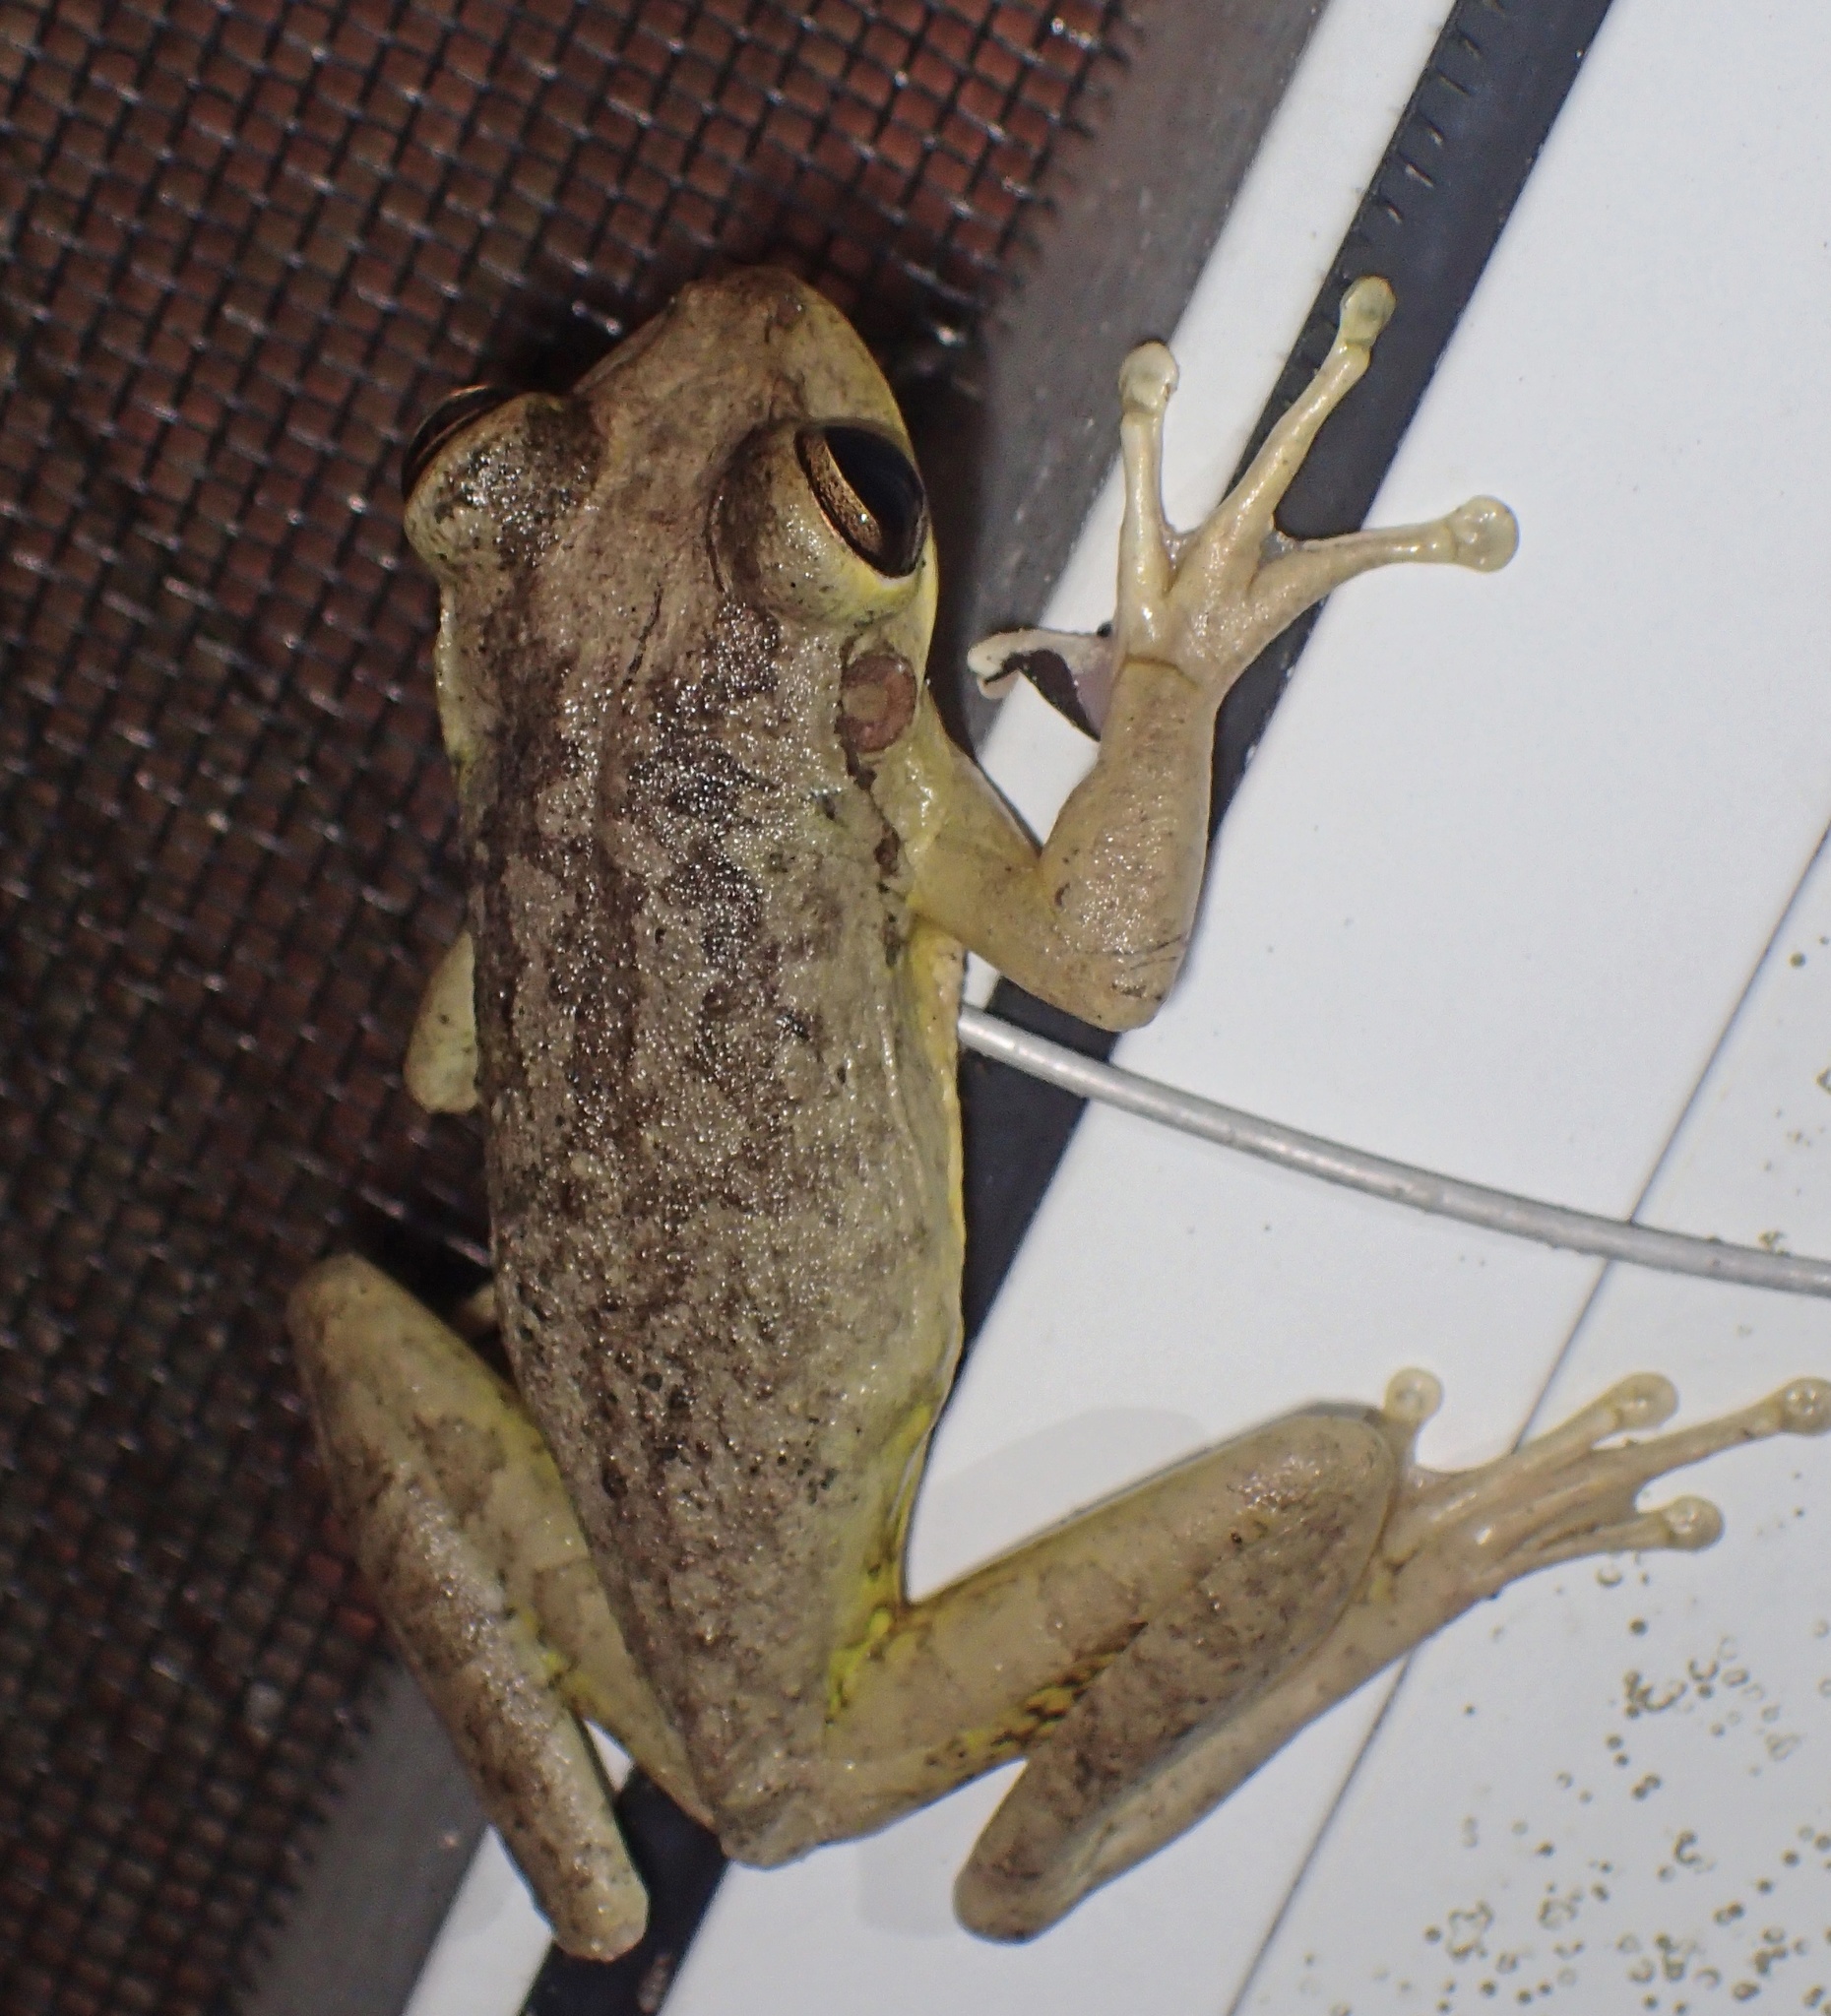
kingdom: Animalia
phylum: Chordata
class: Amphibia
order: Anura
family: Hylidae
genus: Osteopilus
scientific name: Osteopilus septentrionalis
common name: Cuban treefrog
